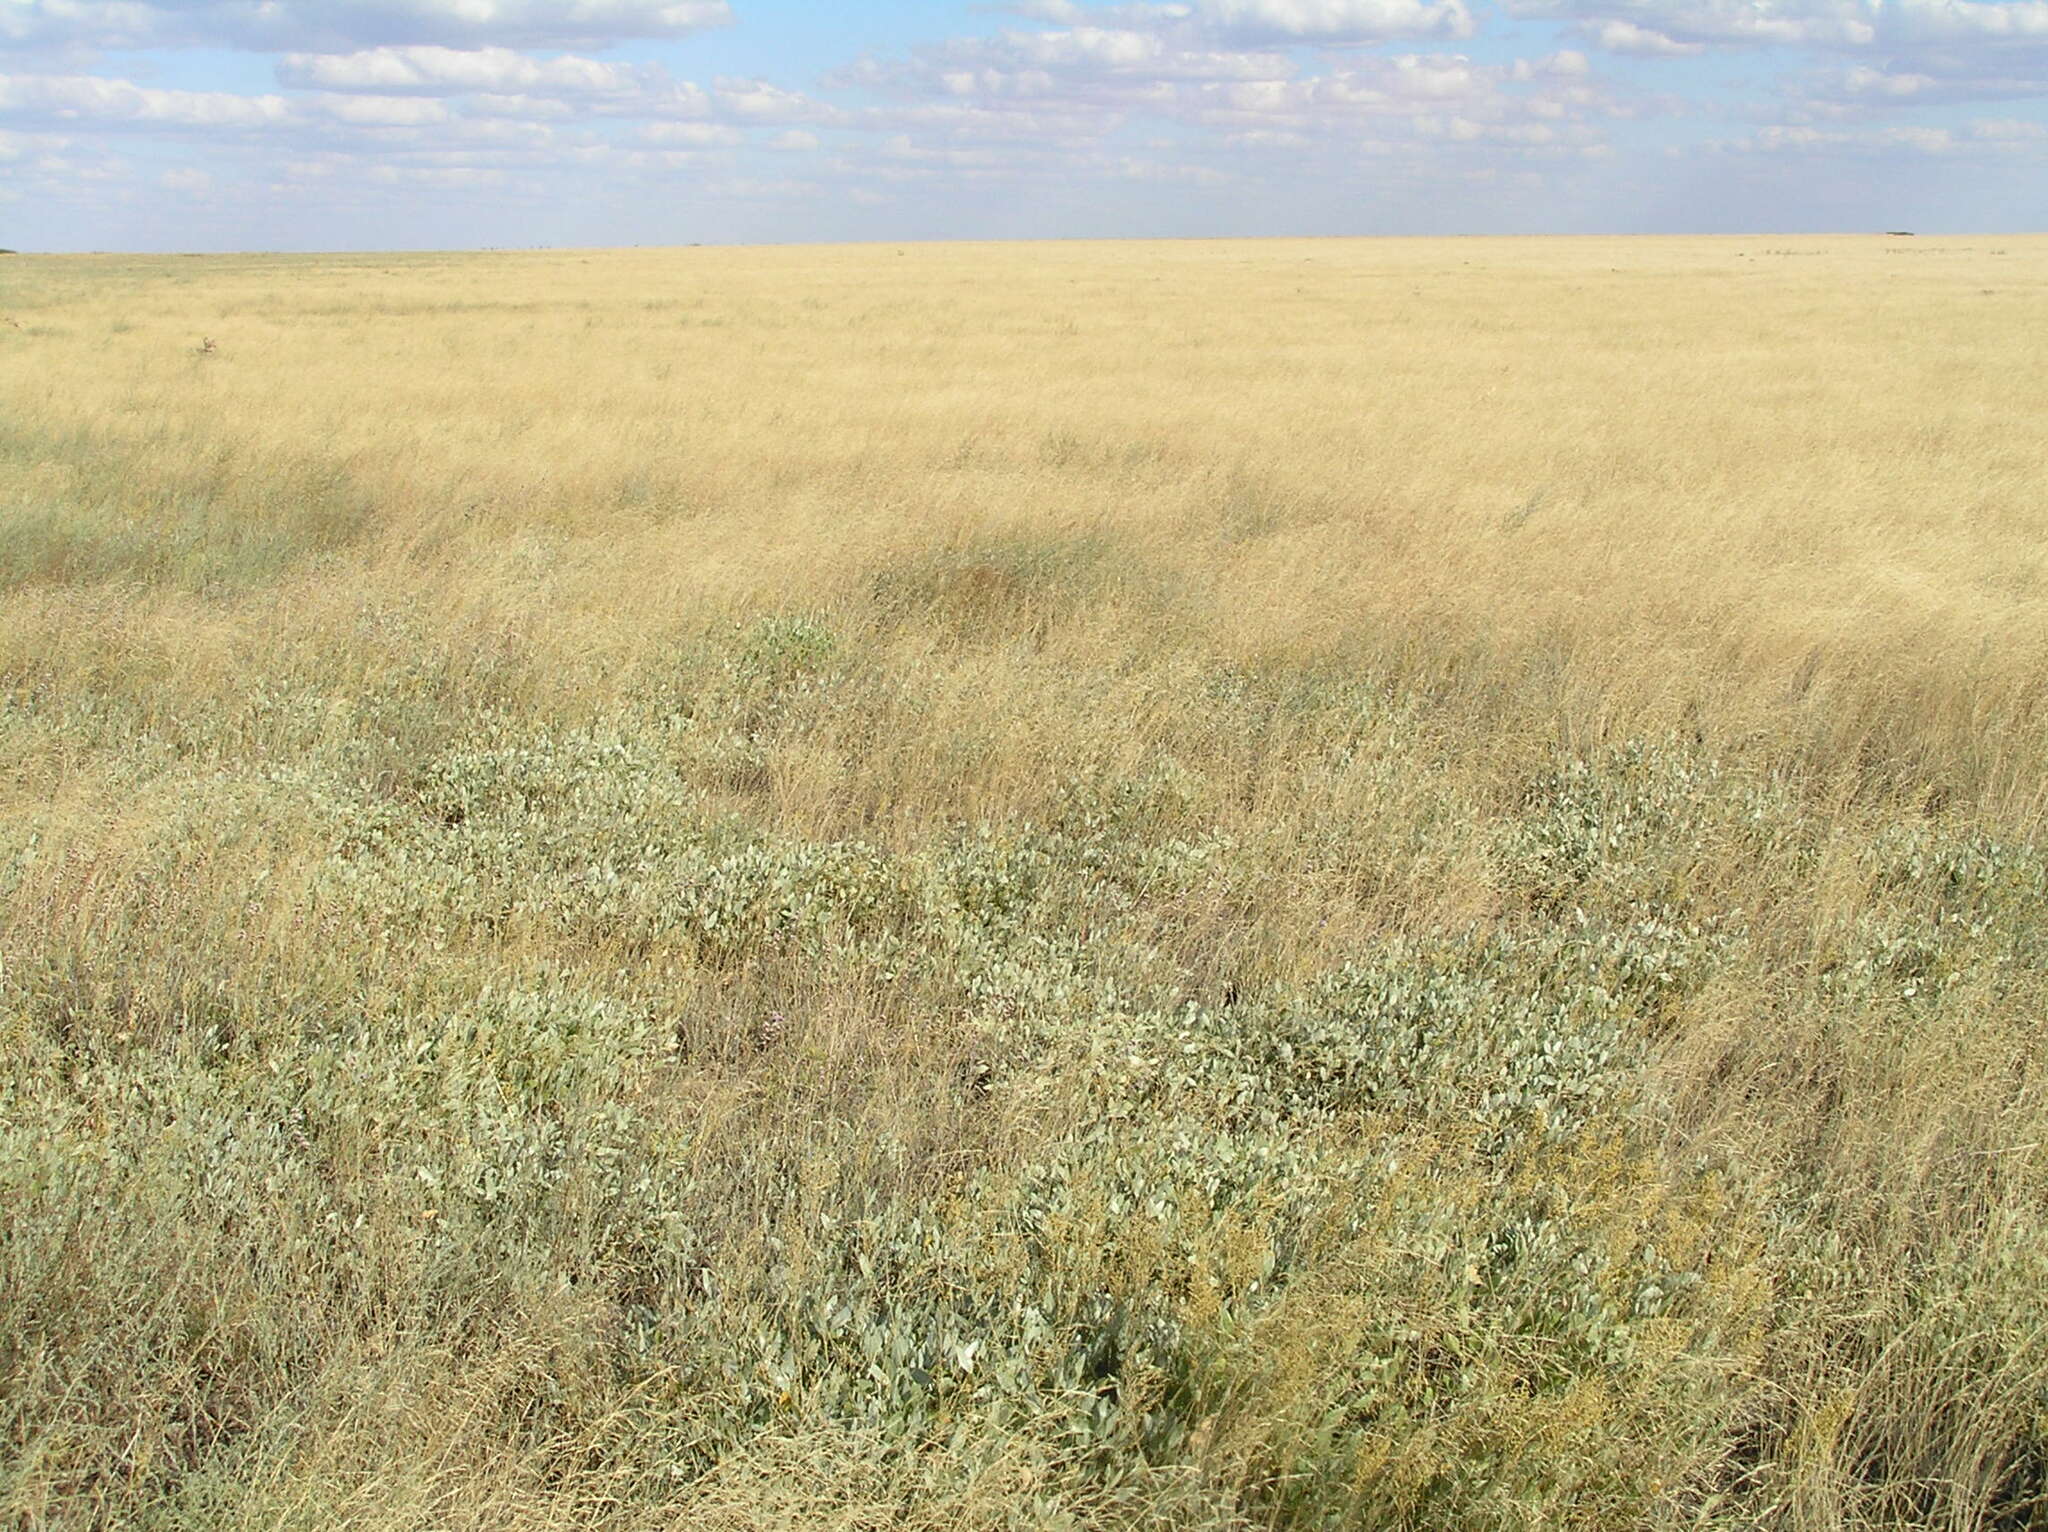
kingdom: Plantae
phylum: Tracheophyta
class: Magnoliopsida
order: Caryophyllales
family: Amaranthaceae
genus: Halimione
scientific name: Halimione verrucifera
